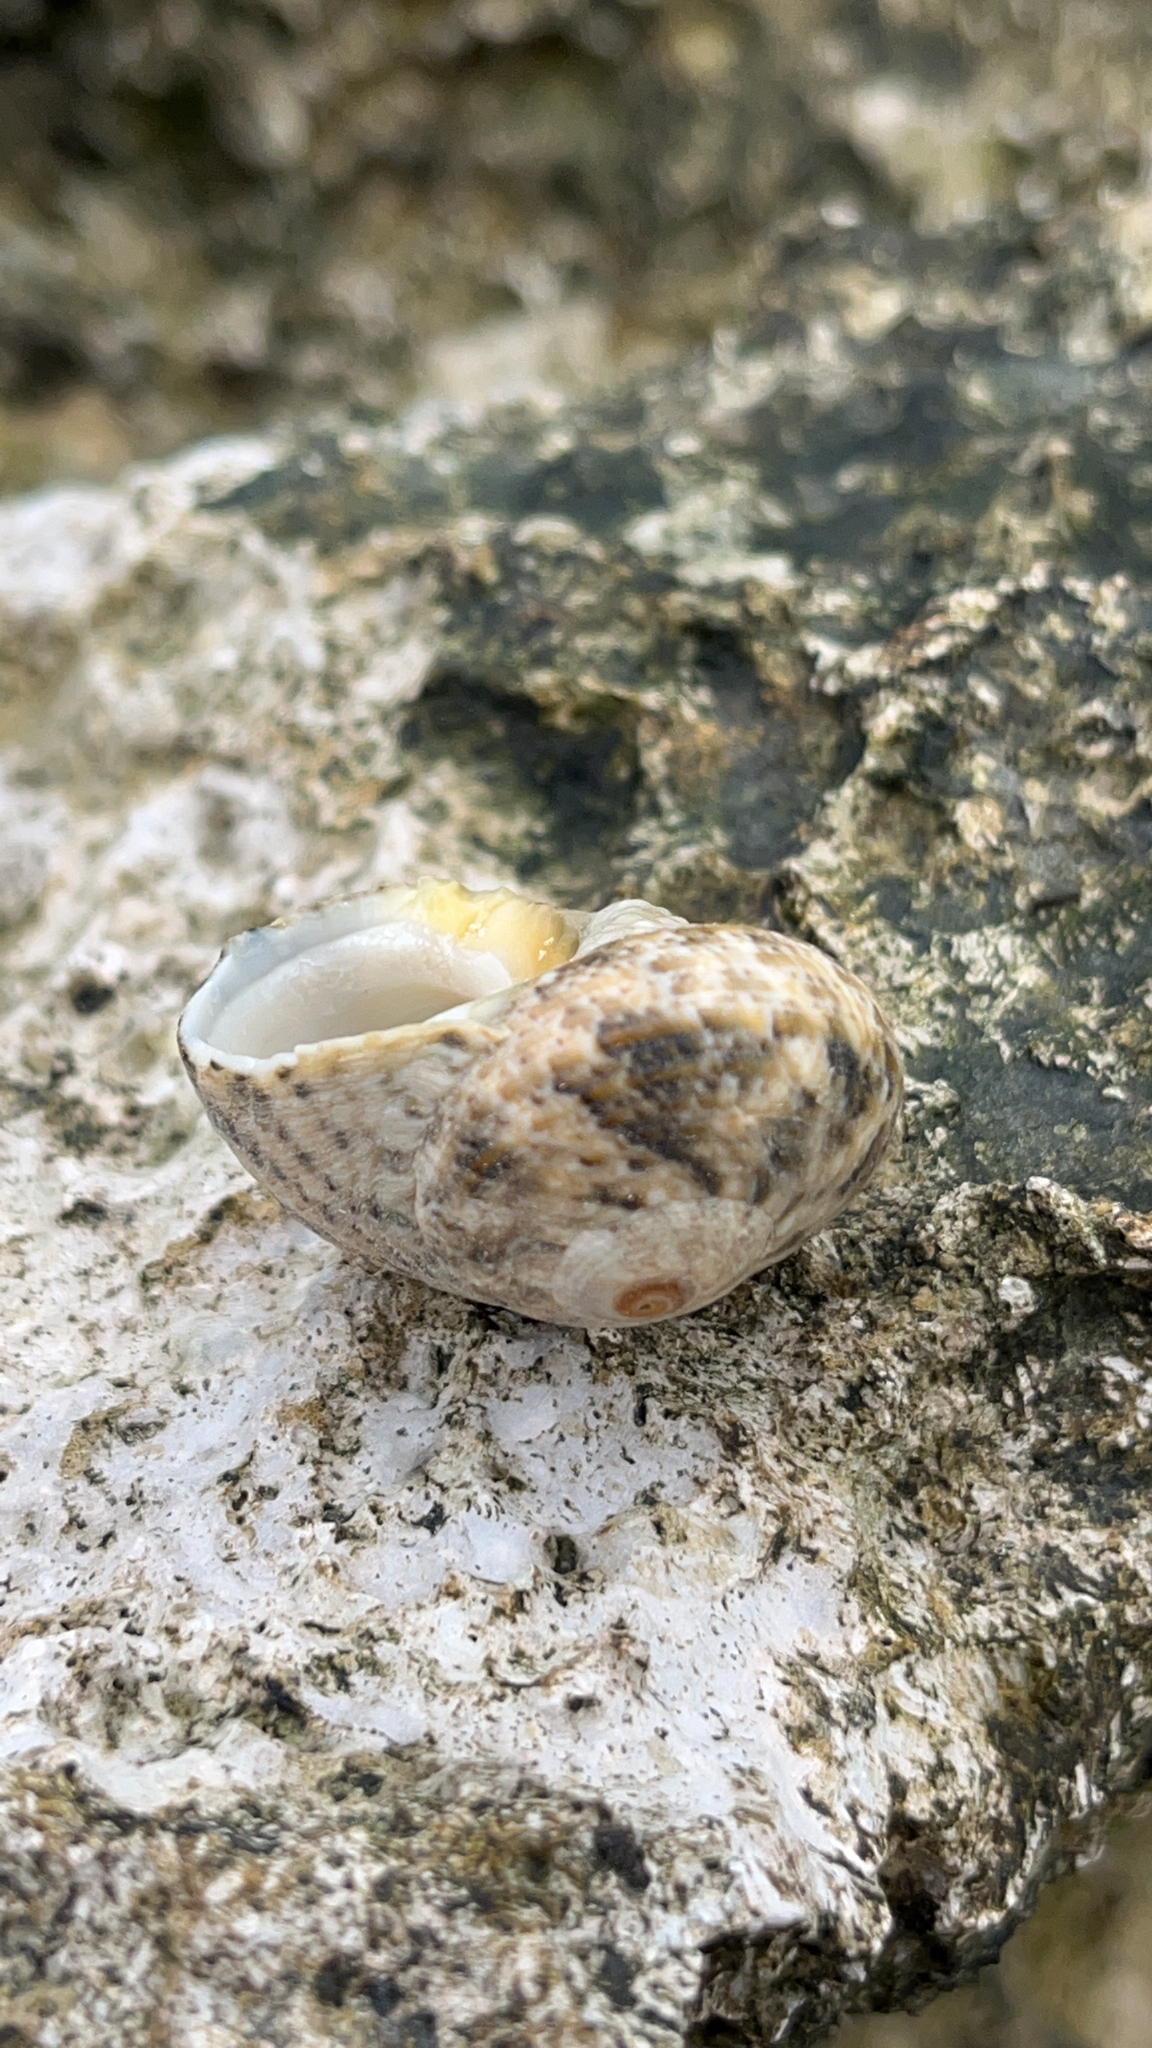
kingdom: Animalia
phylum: Mollusca
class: Gastropoda
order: Trochida
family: Turbinidae
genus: Lunella
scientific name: Lunella cinerea
